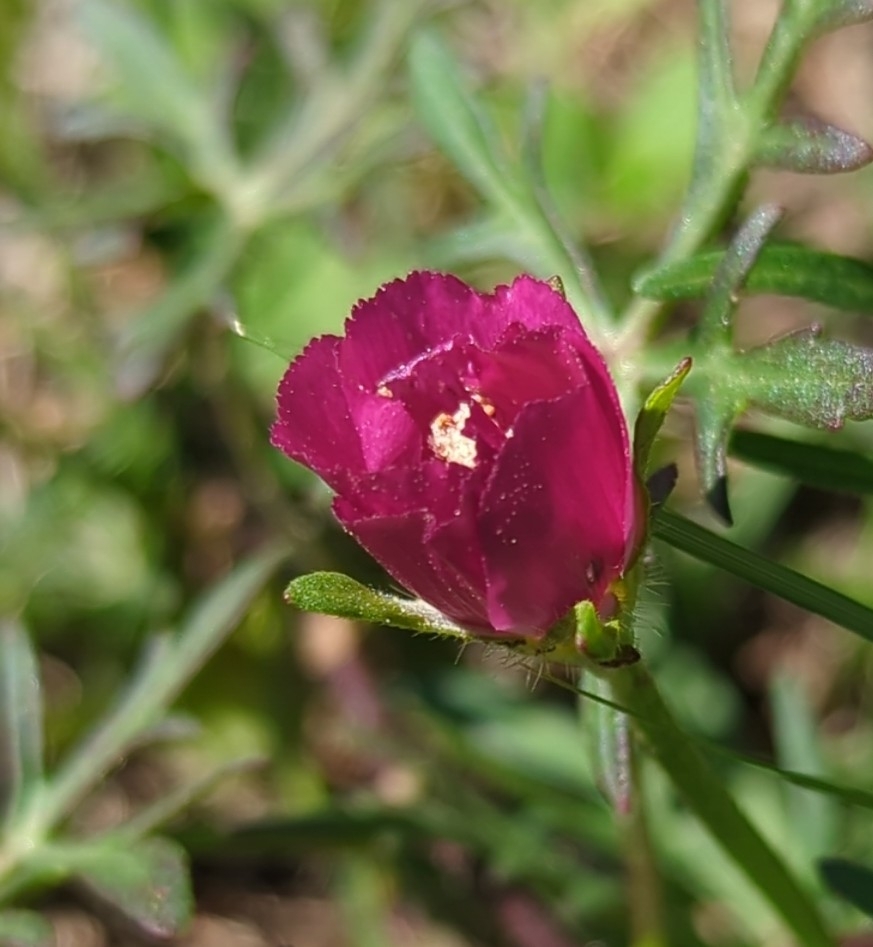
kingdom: Plantae
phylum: Tracheophyta
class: Magnoliopsida
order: Malvales
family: Malvaceae
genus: Callirhoe
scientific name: Callirhoe involucrata
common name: Purple poppy-mallow
